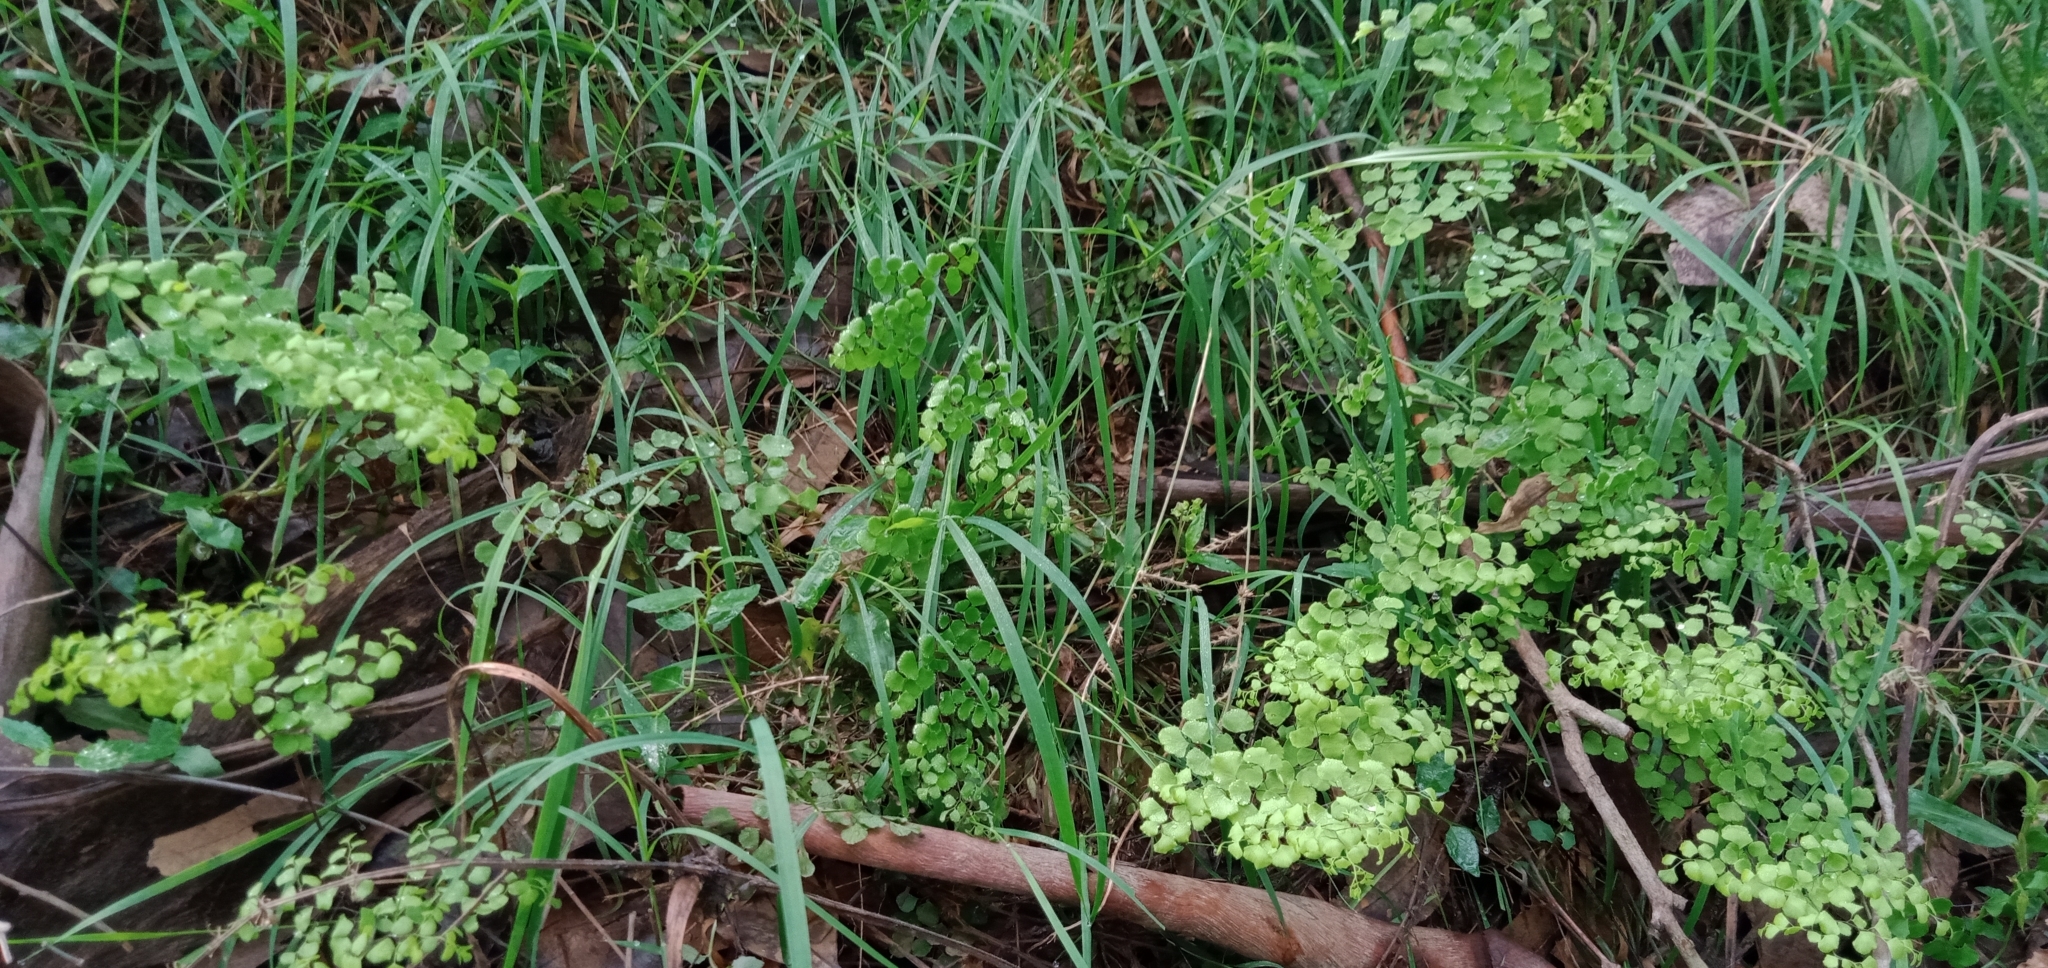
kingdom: Plantae
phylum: Tracheophyta
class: Polypodiopsida
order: Polypodiales
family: Pteridaceae
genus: Adiantum
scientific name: Adiantum capillus-veneris
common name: Maidenhair fern
